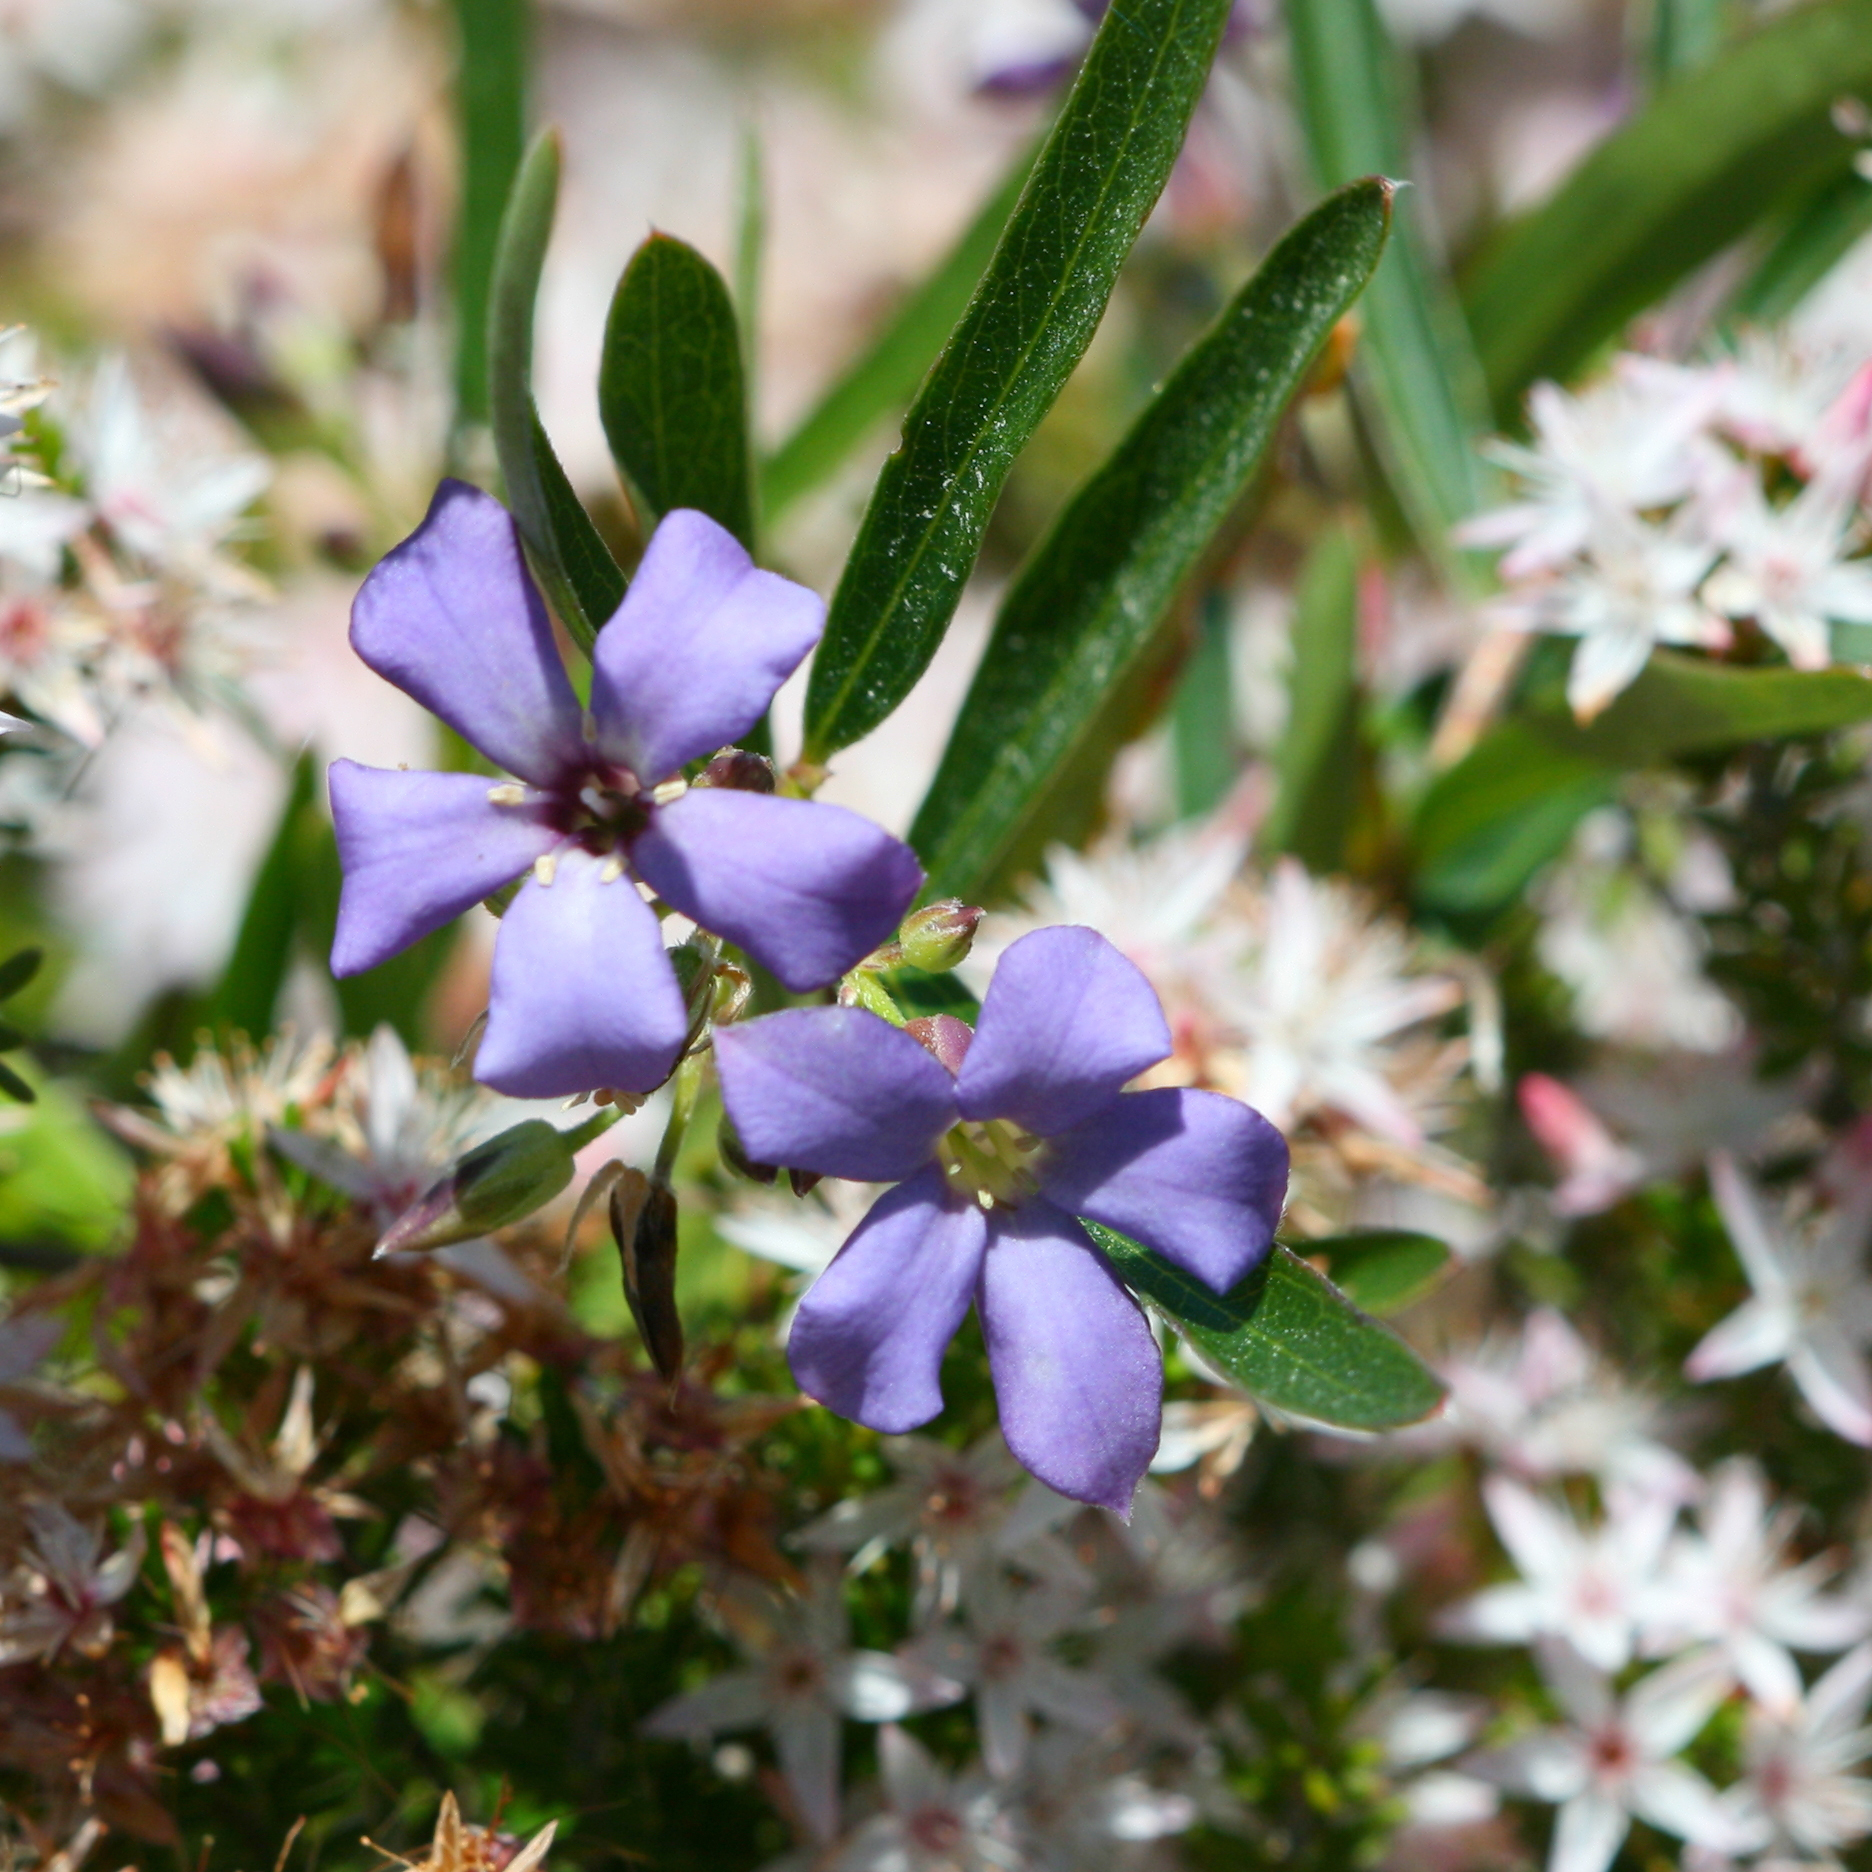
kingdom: Plantae
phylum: Tracheophyta
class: Magnoliopsida
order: Apiales
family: Pittosporaceae
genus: Billardiera
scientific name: Billardiera cymosa
